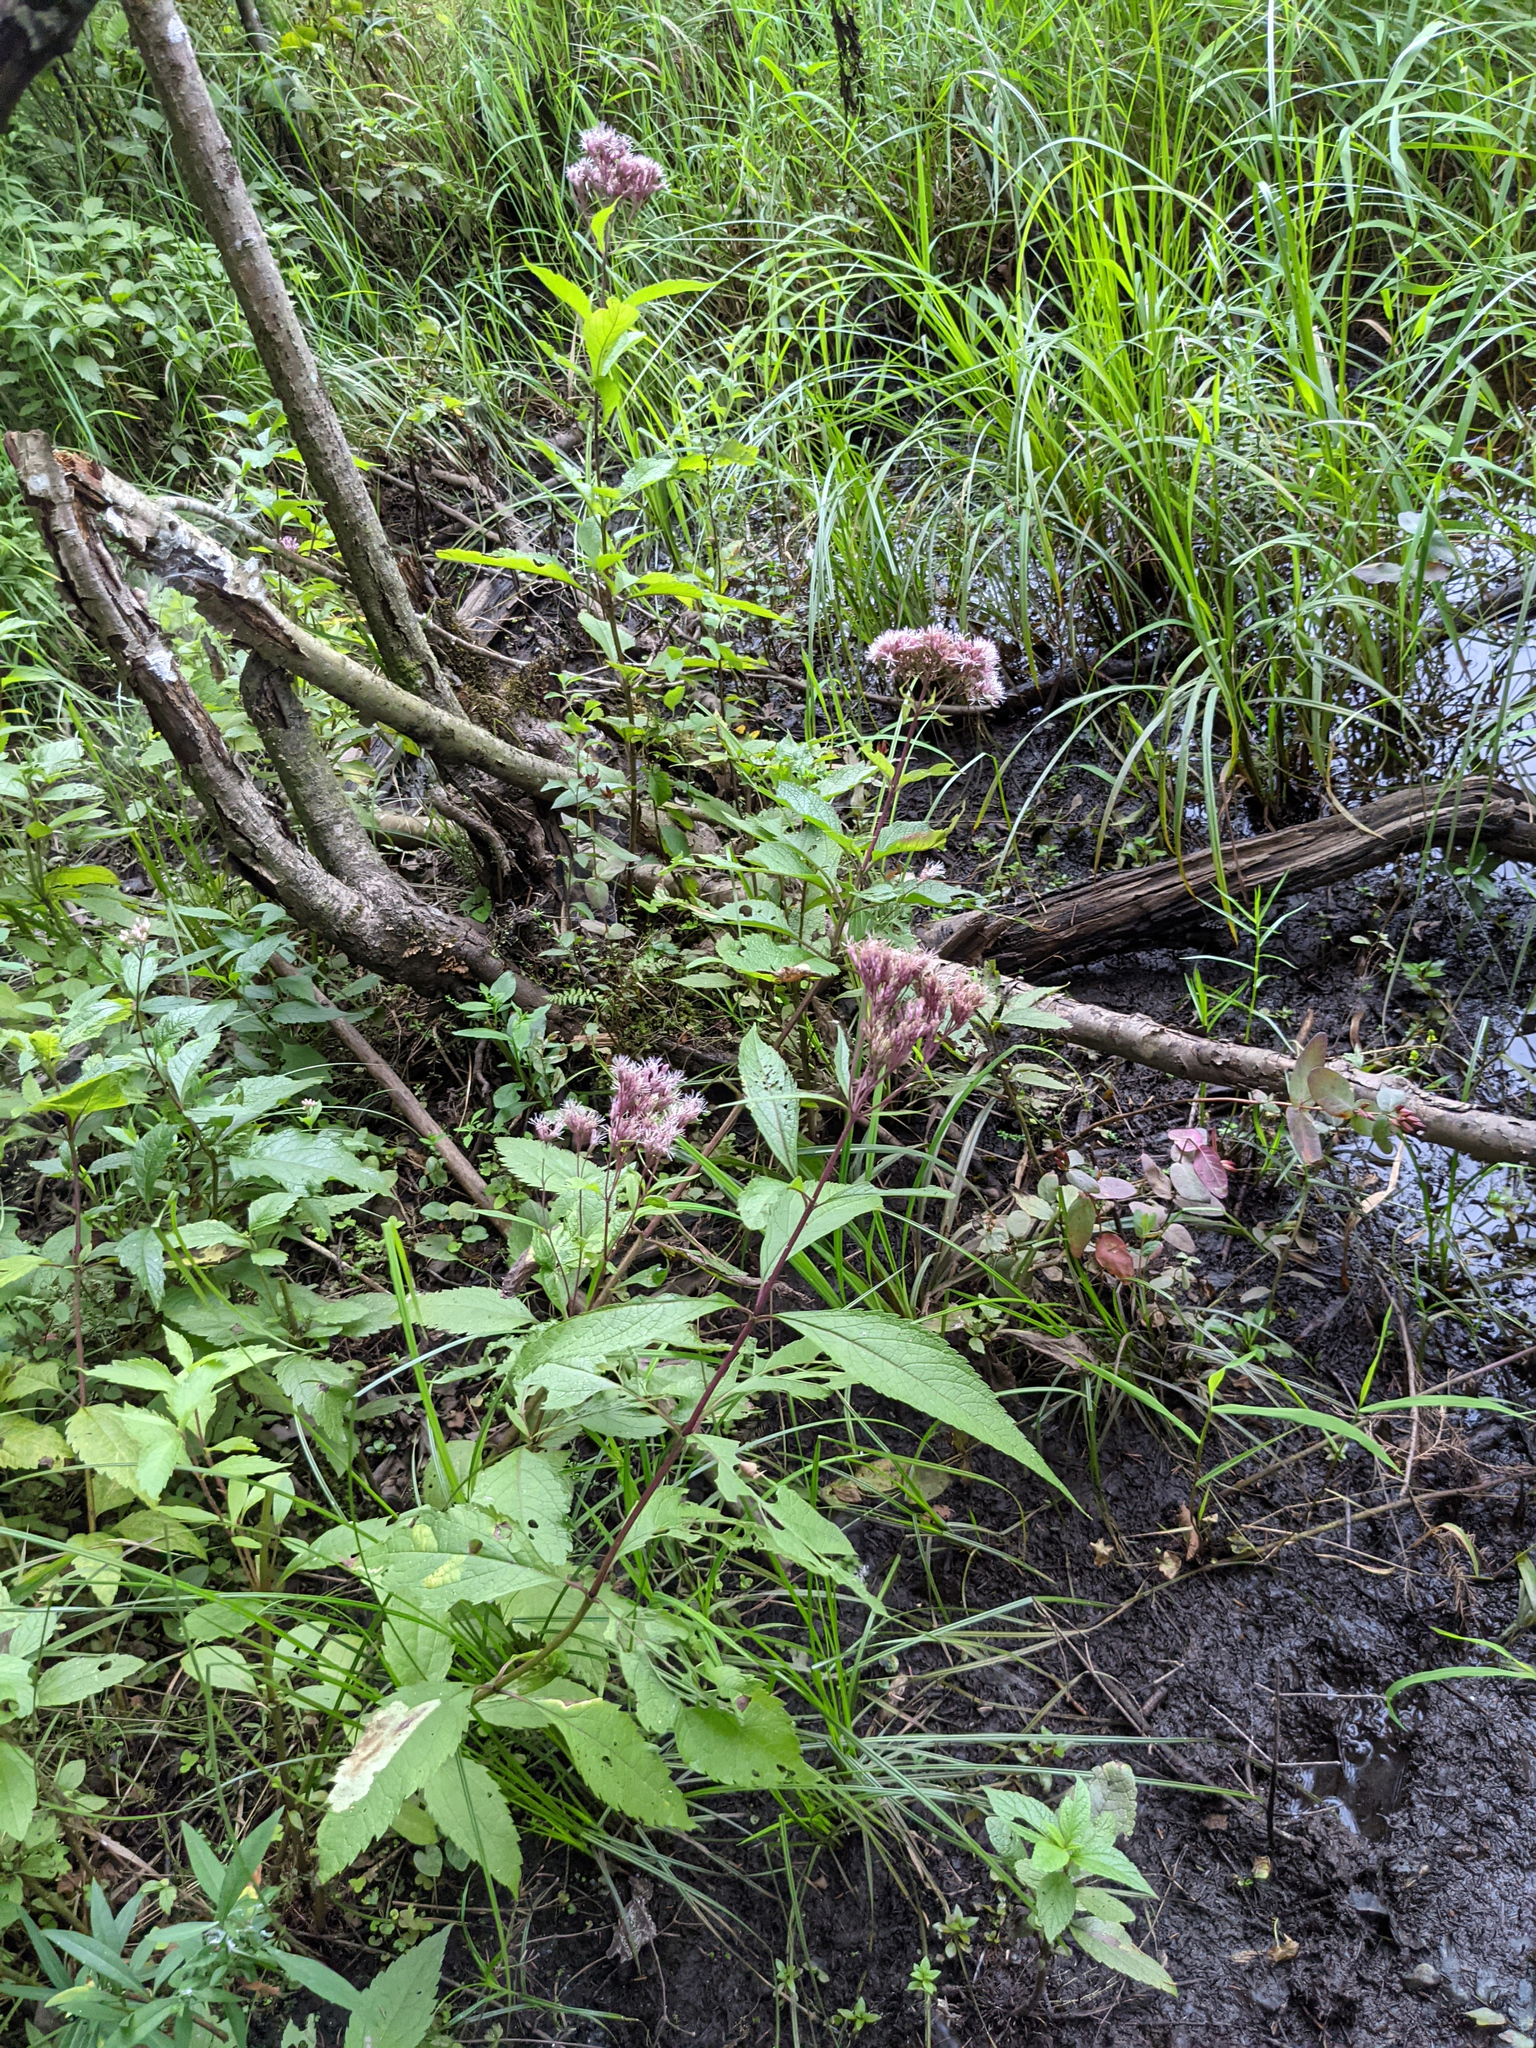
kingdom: Plantae
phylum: Tracheophyta
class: Magnoliopsida
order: Asterales
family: Asteraceae
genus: Eutrochium
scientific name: Eutrochium maculatum
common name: Spotted joe pye weed
